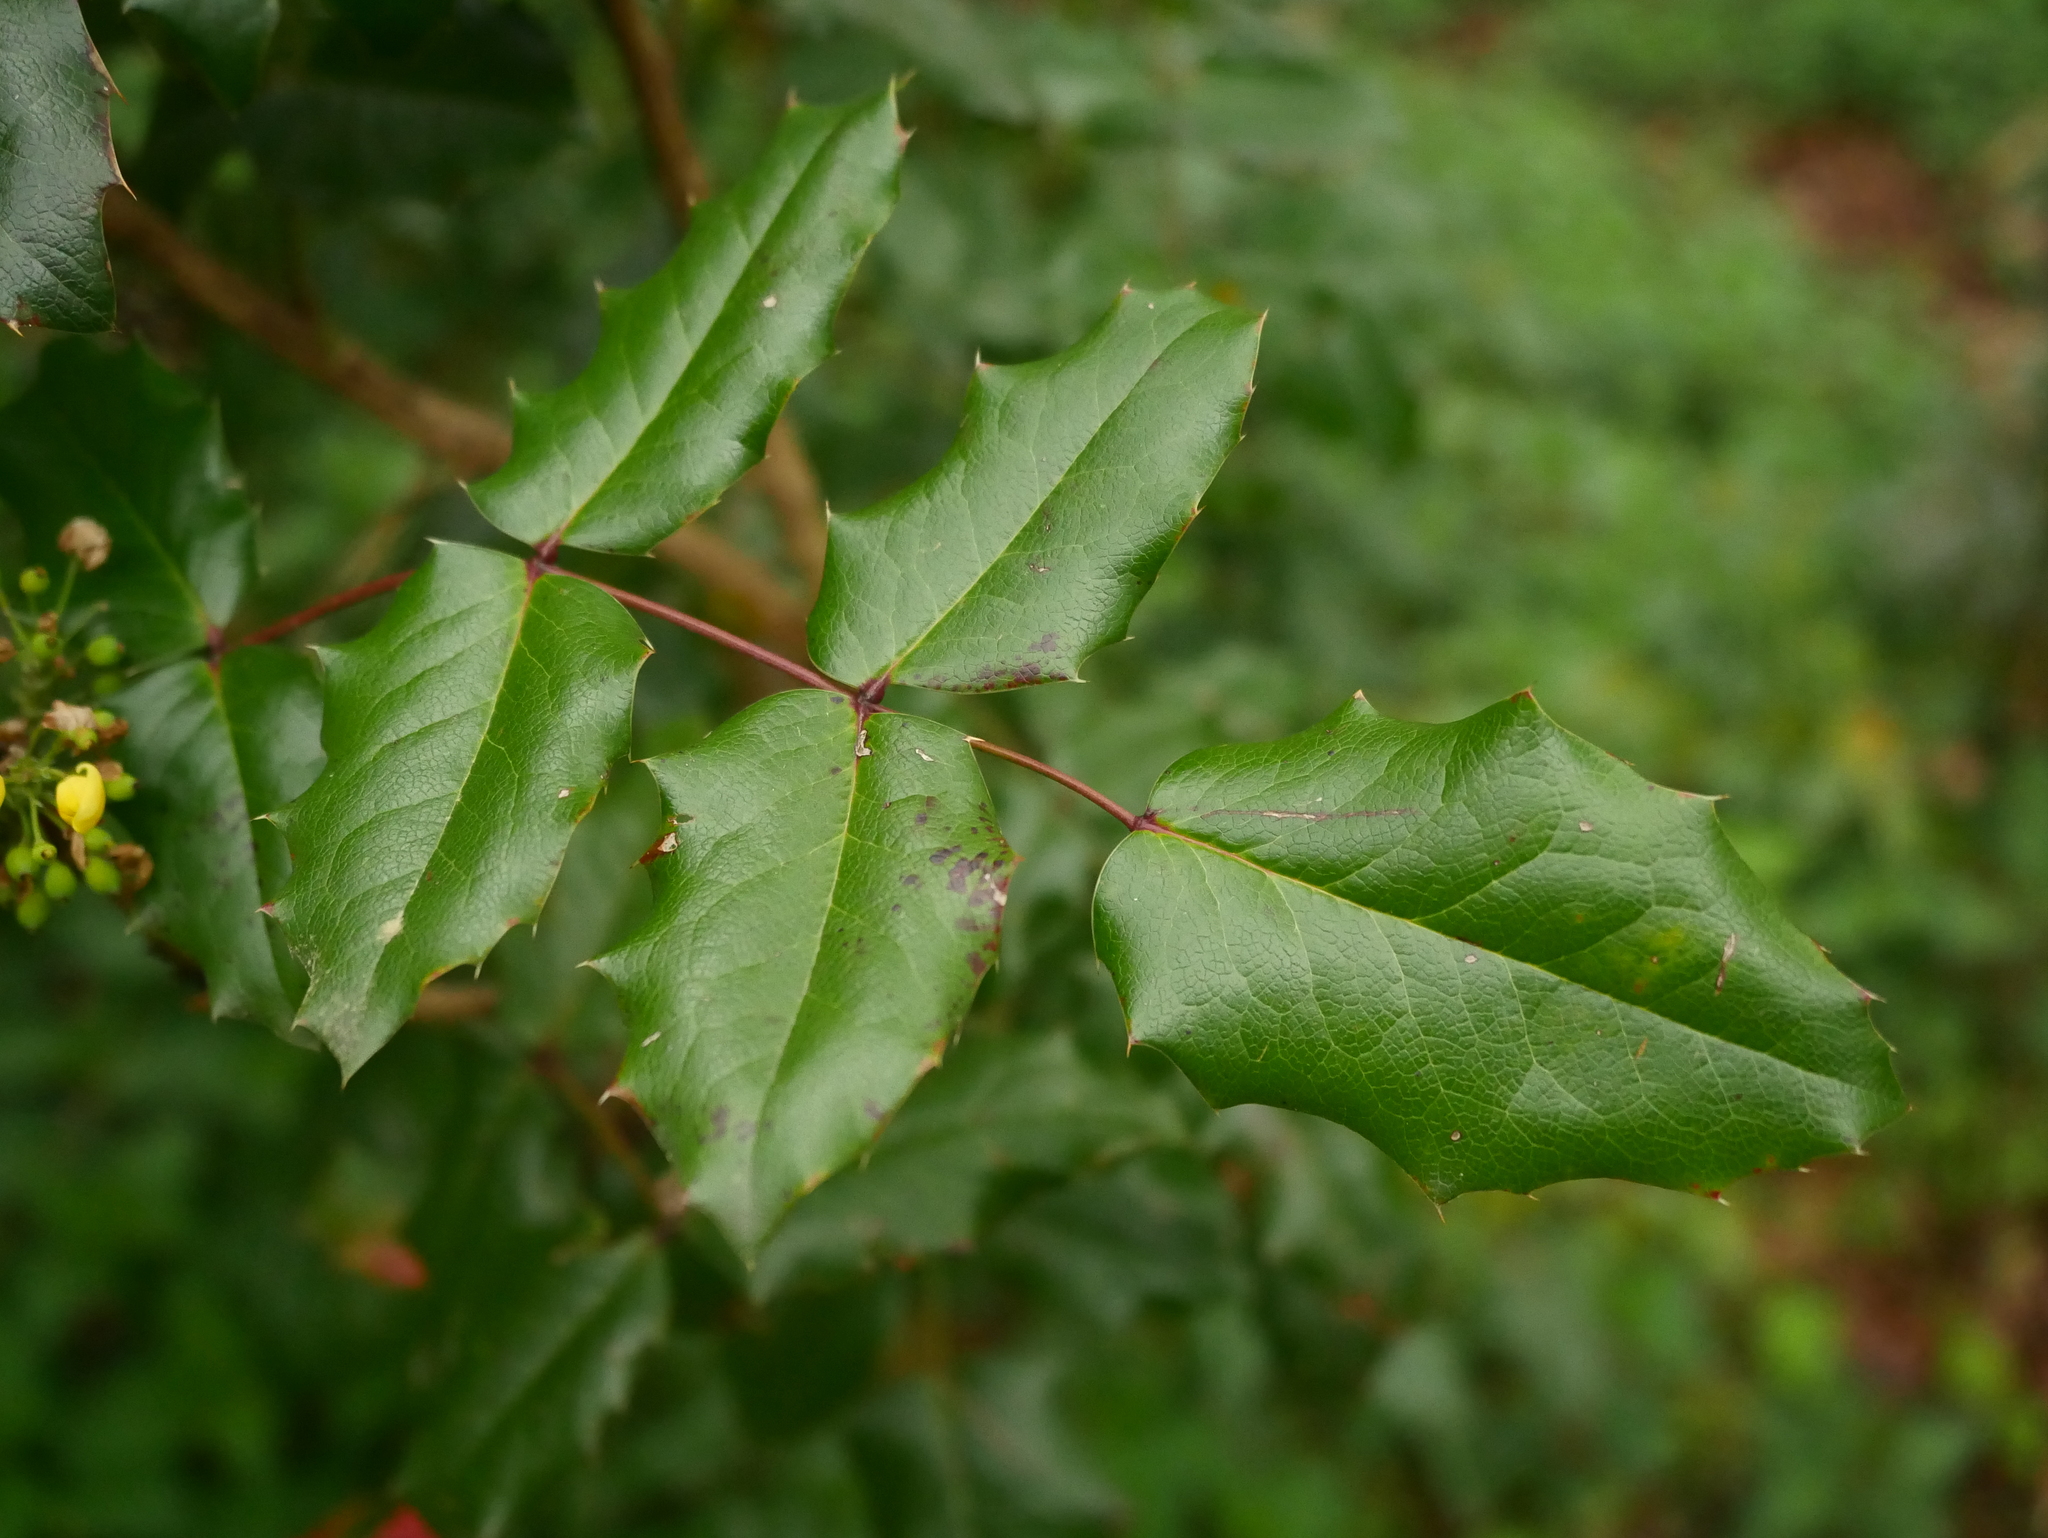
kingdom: Plantae
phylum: Tracheophyta
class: Magnoliopsida
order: Ranunculales
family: Berberidaceae
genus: Mahonia
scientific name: Mahonia aquifolium
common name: Oregon-grape
